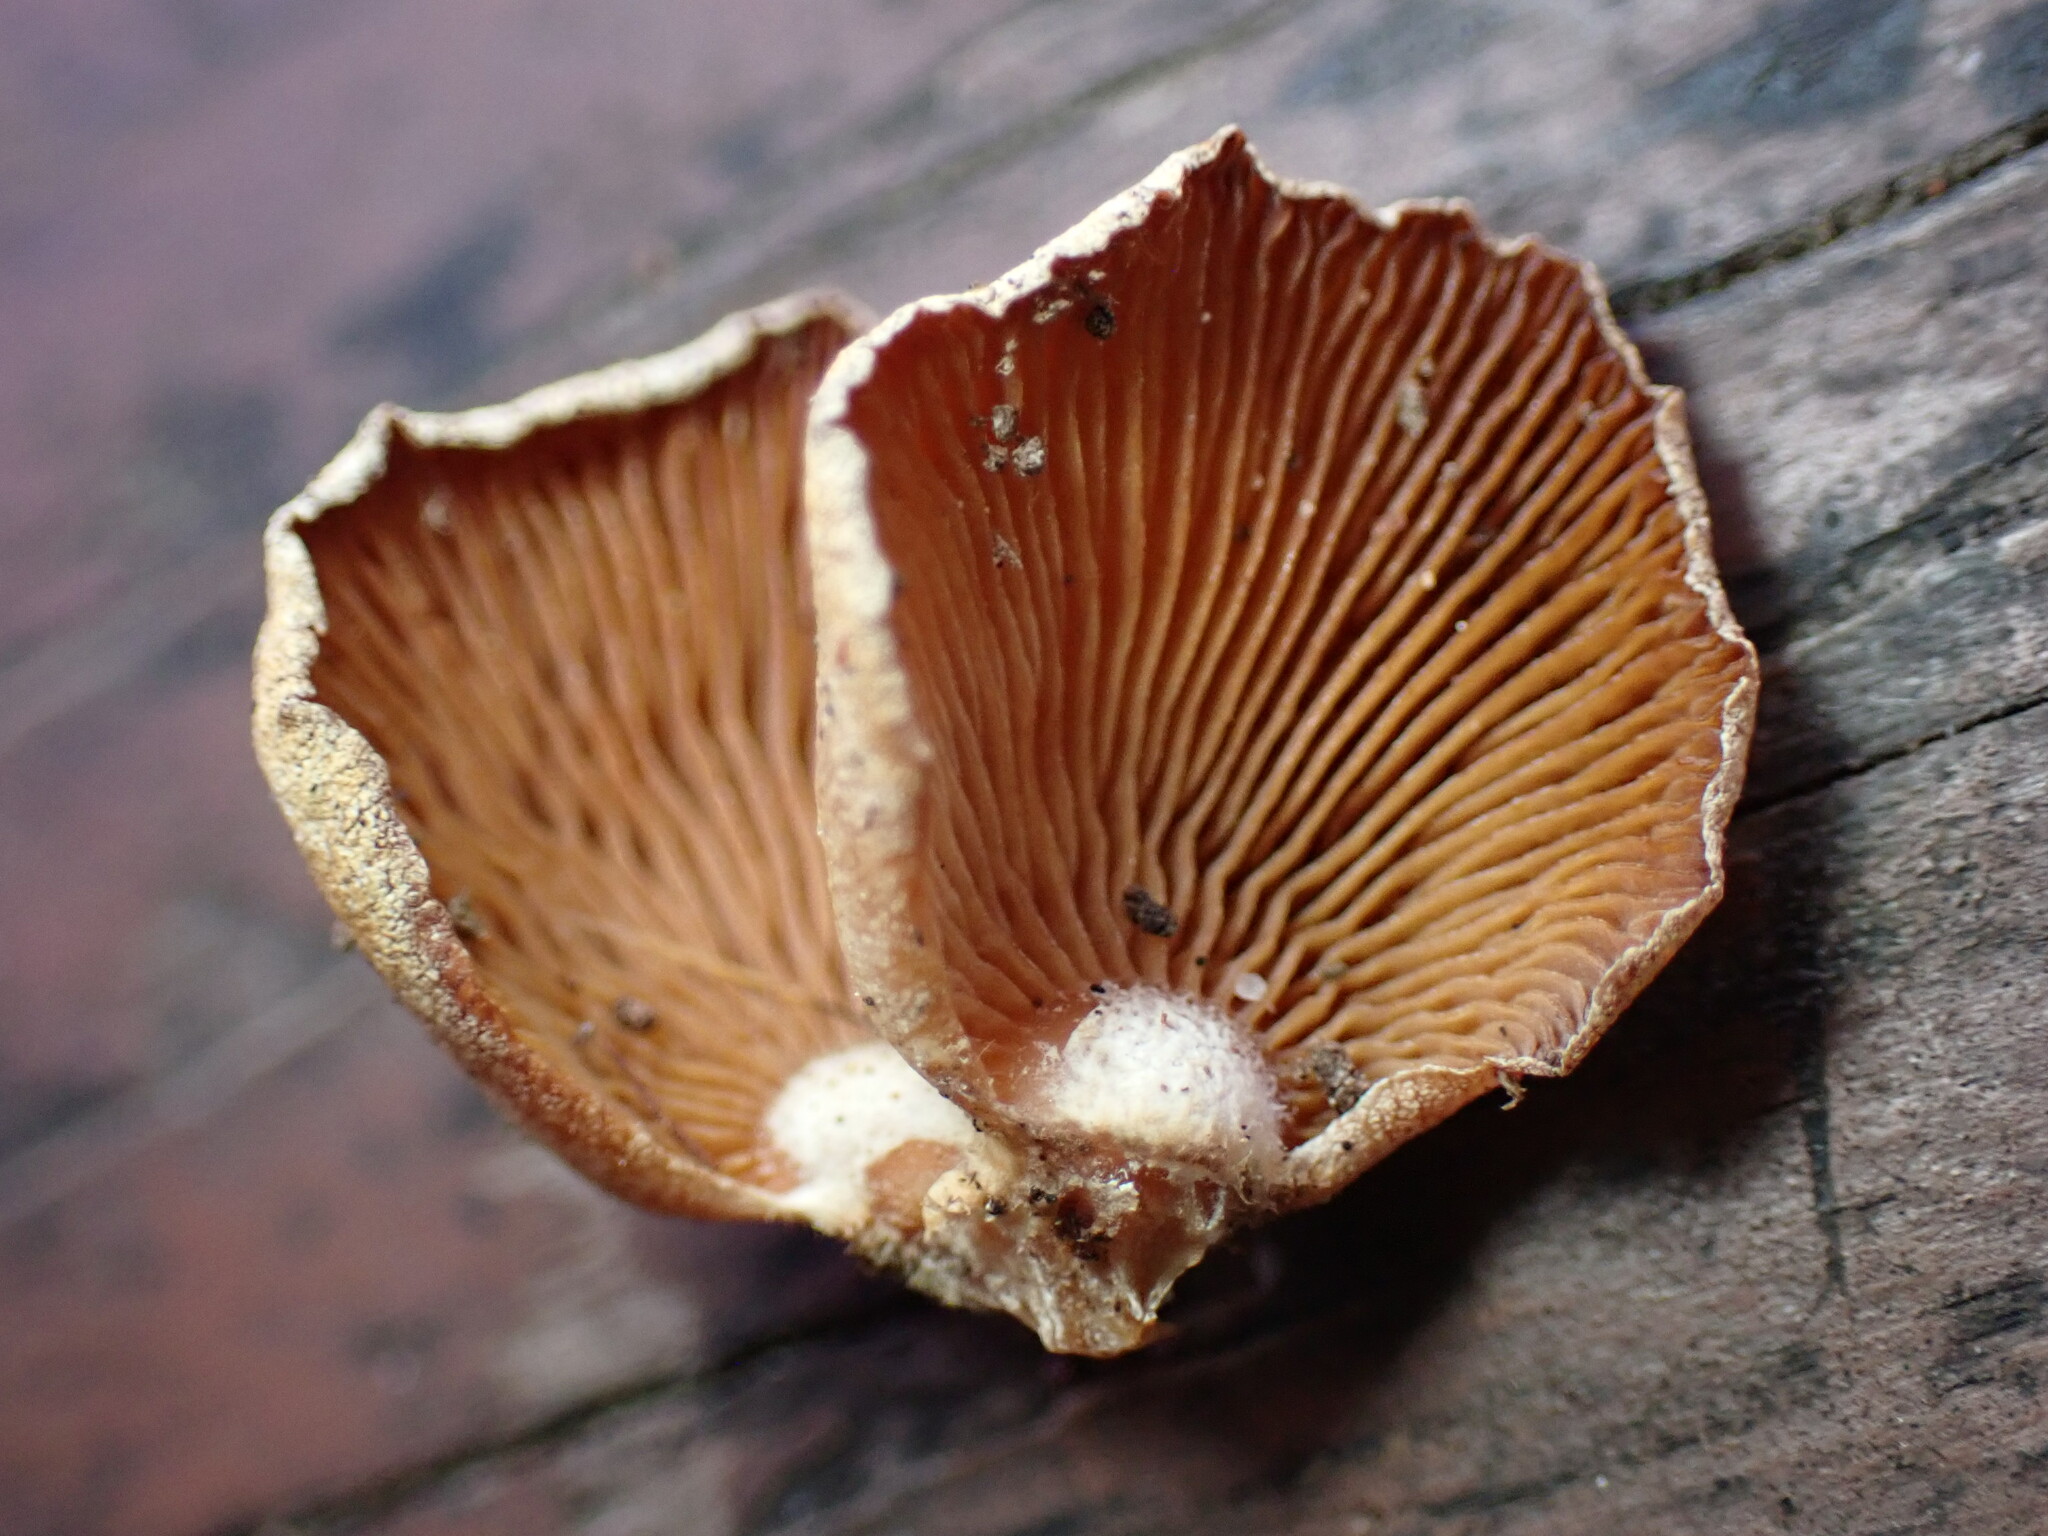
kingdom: Fungi
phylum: Basidiomycota
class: Agaricomycetes
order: Agaricales
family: Mycenaceae
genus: Panellus
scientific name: Panellus stipticus
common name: Bitter oysterling
